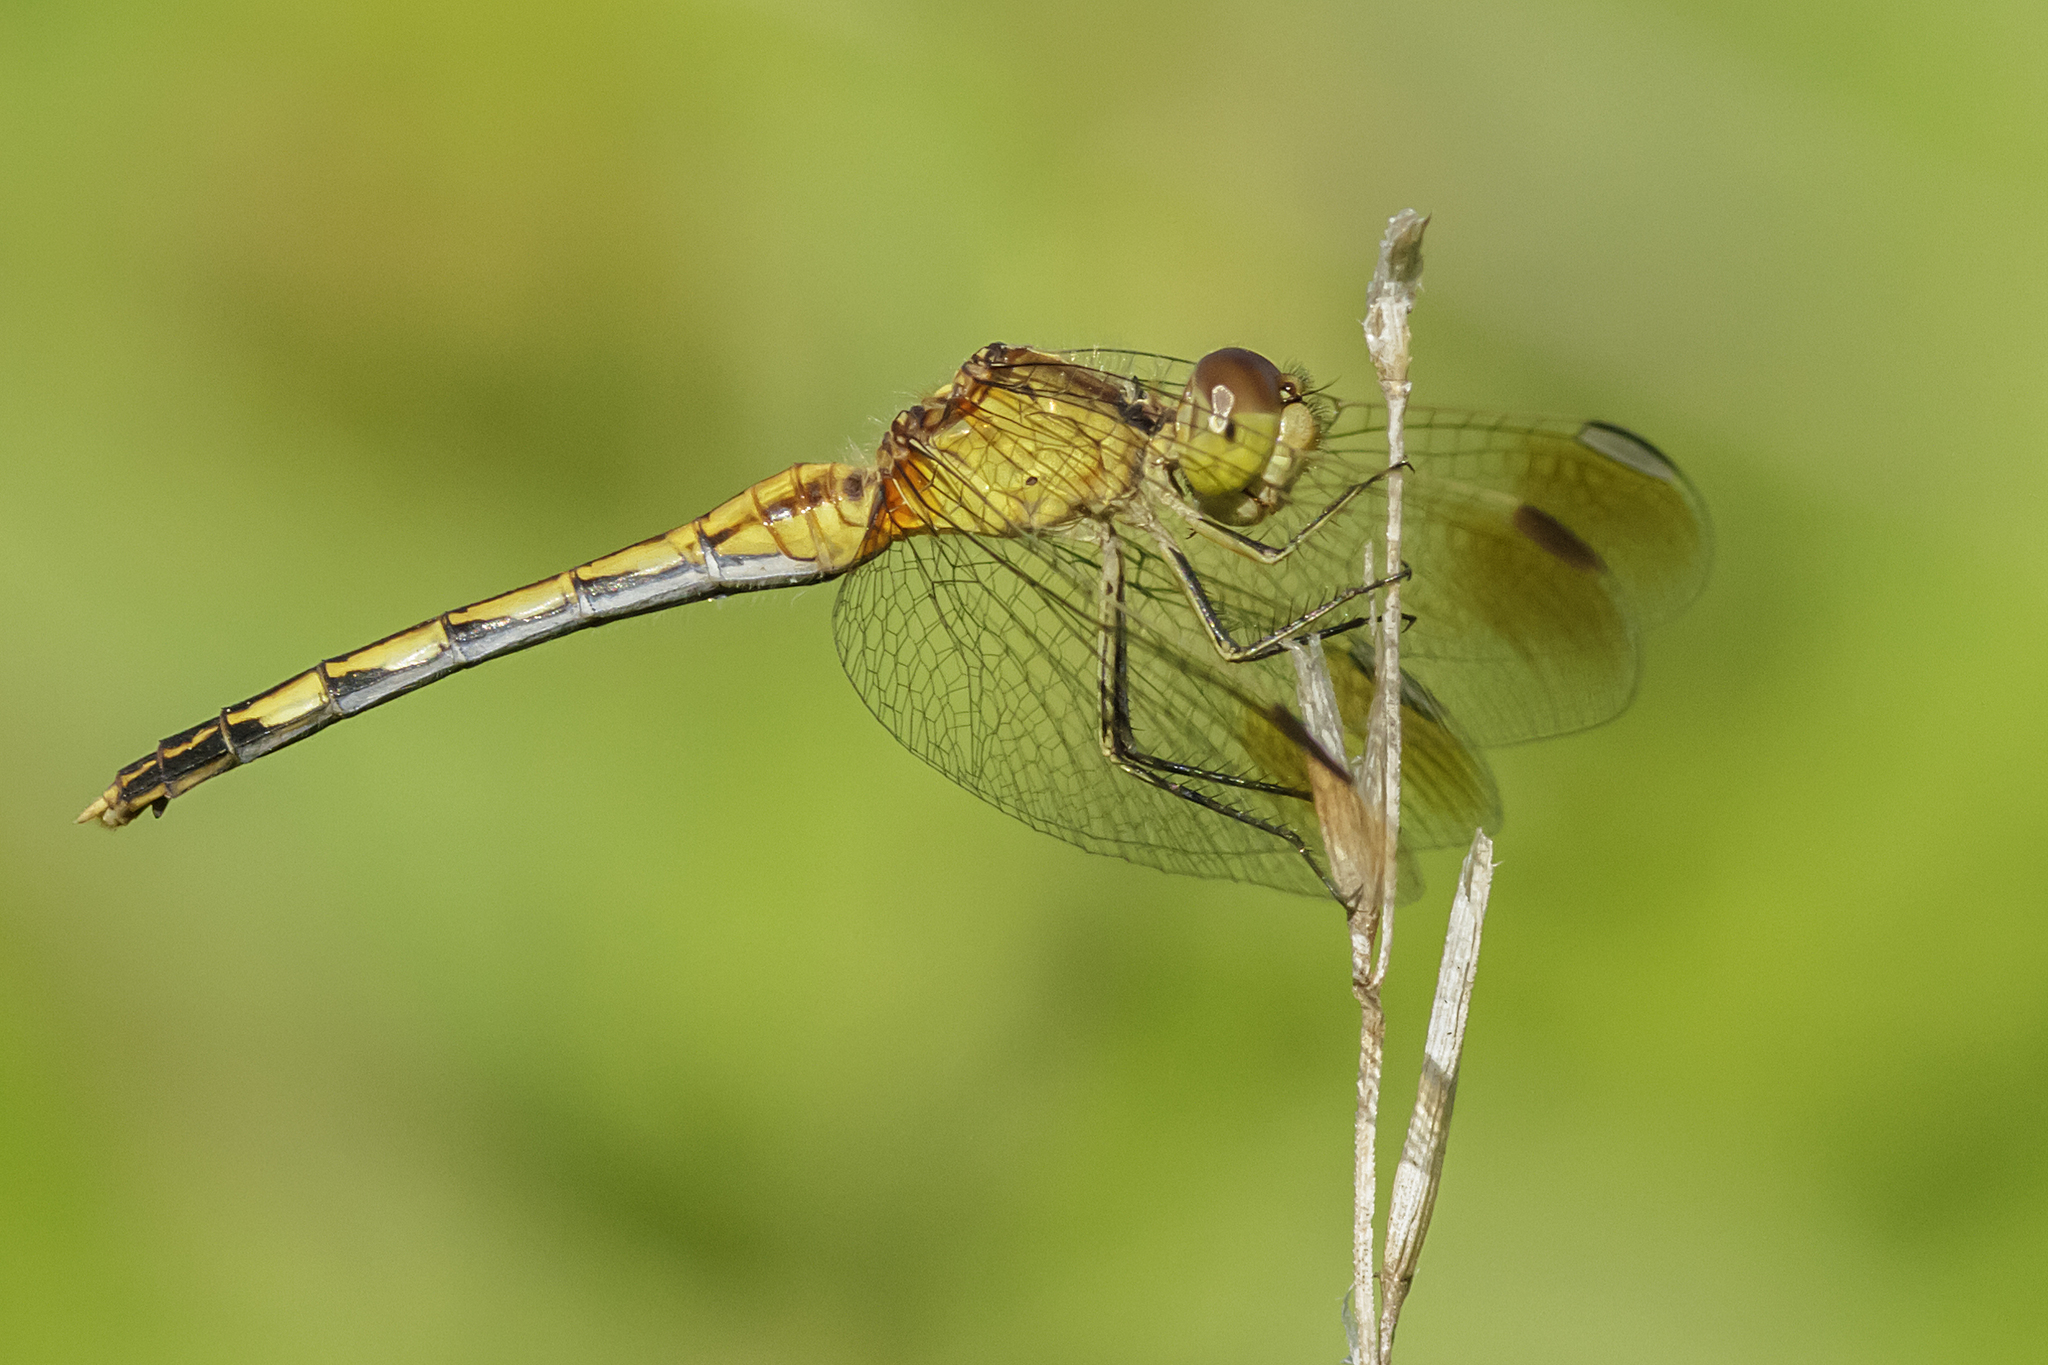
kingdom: Animalia
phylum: Arthropoda
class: Insecta
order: Odonata
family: Libellulidae
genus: Erythrodiplax
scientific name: Erythrodiplax nigricans
